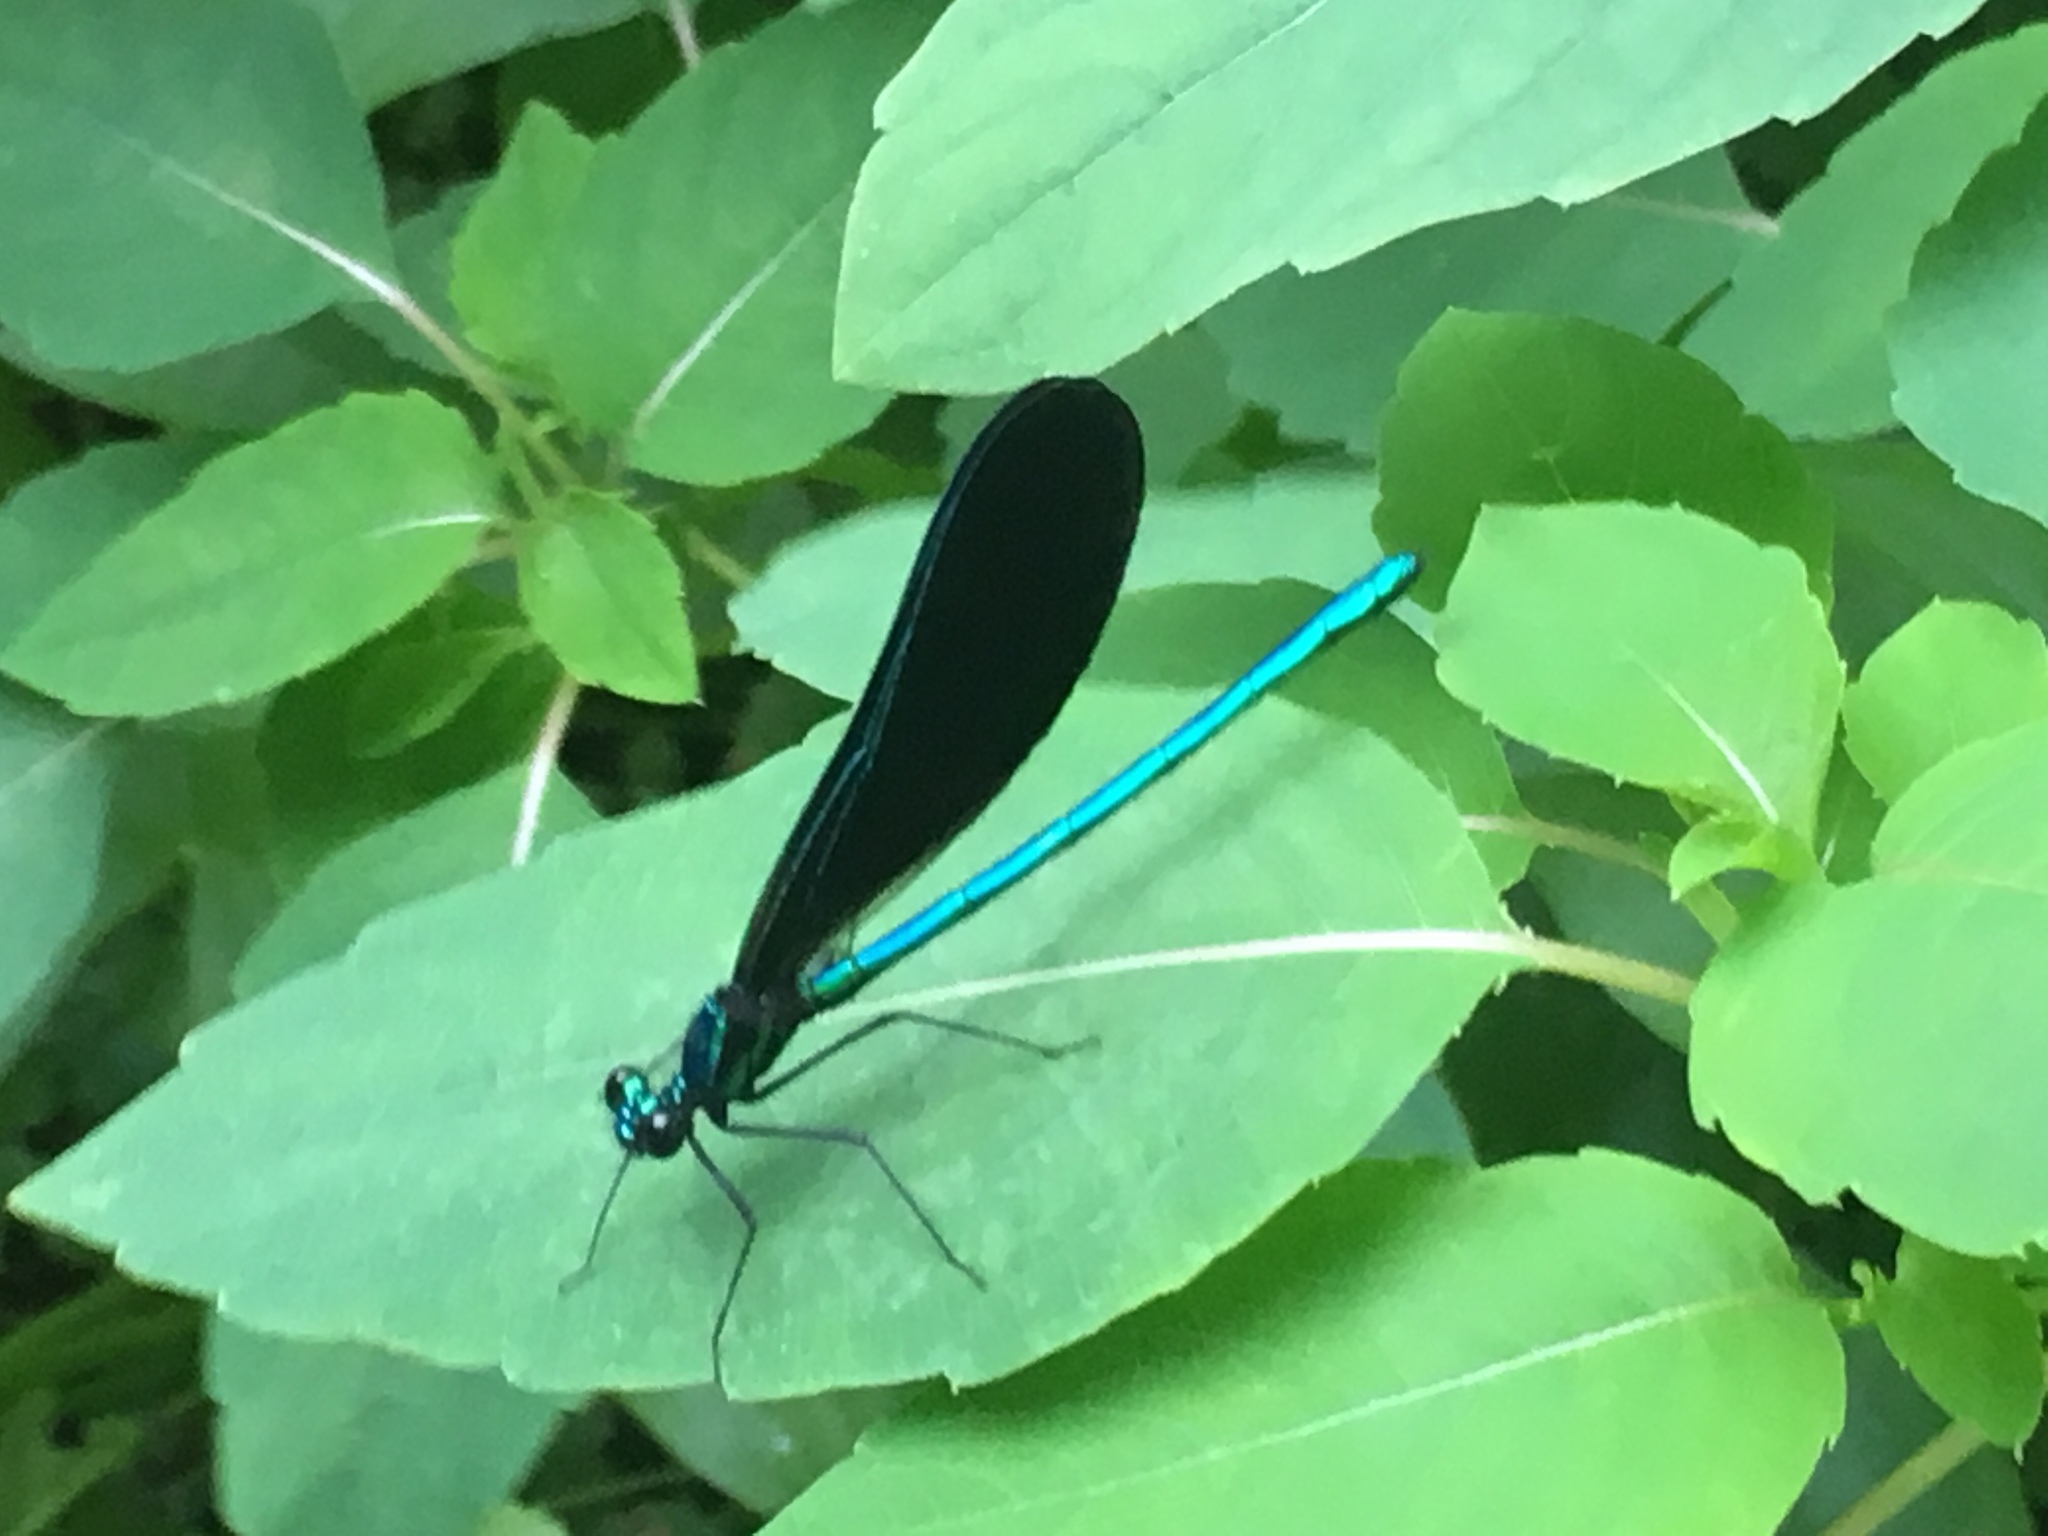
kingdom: Animalia
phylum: Arthropoda
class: Insecta
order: Odonata
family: Calopterygidae
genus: Calopteryx
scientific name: Calopteryx maculata
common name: Ebony jewelwing
